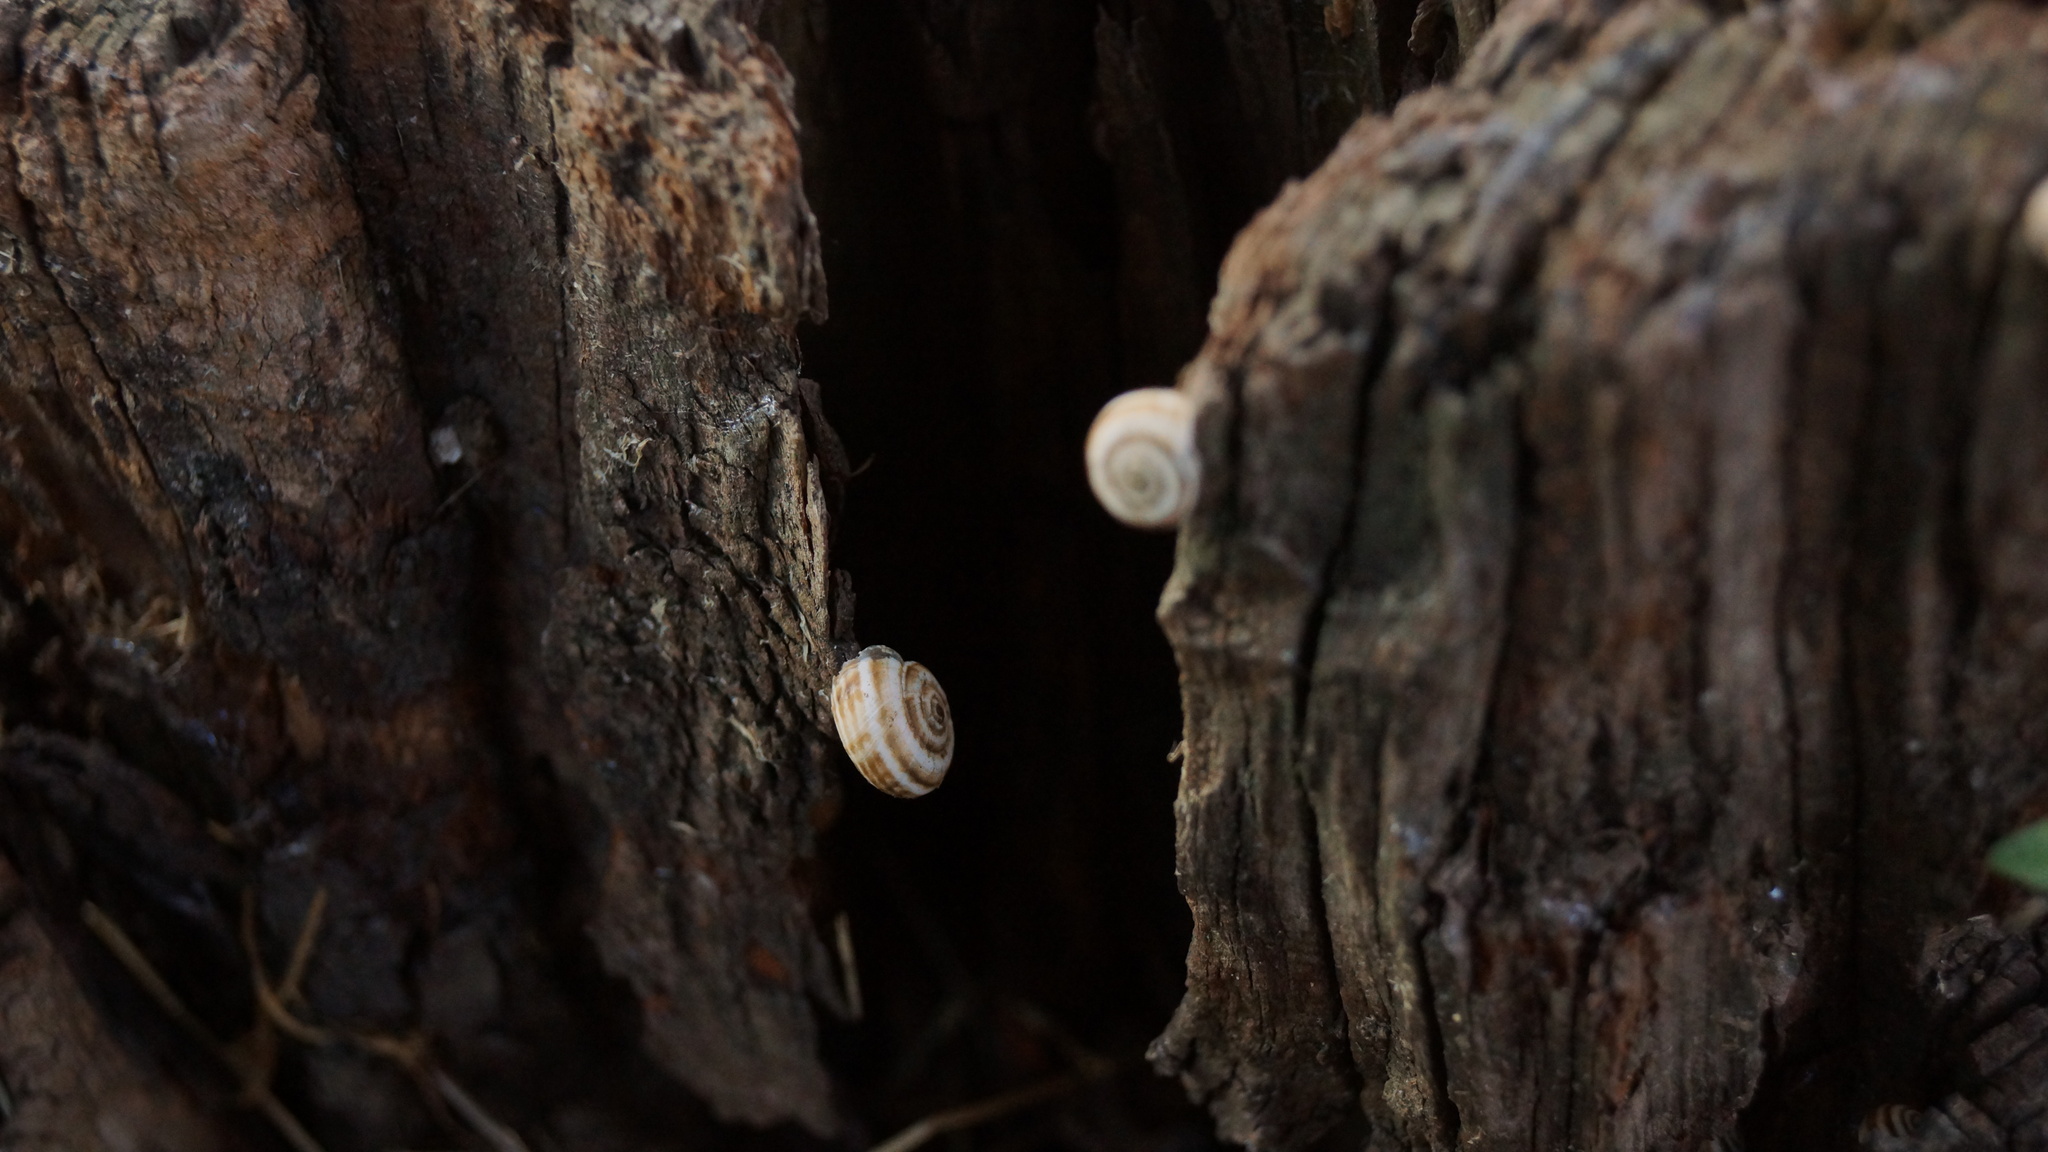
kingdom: Animalia
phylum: Mollusca
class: Gastropoda
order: Stylommatophora
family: Geomitridae
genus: Xeropicta
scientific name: Xeropicta derbentina
